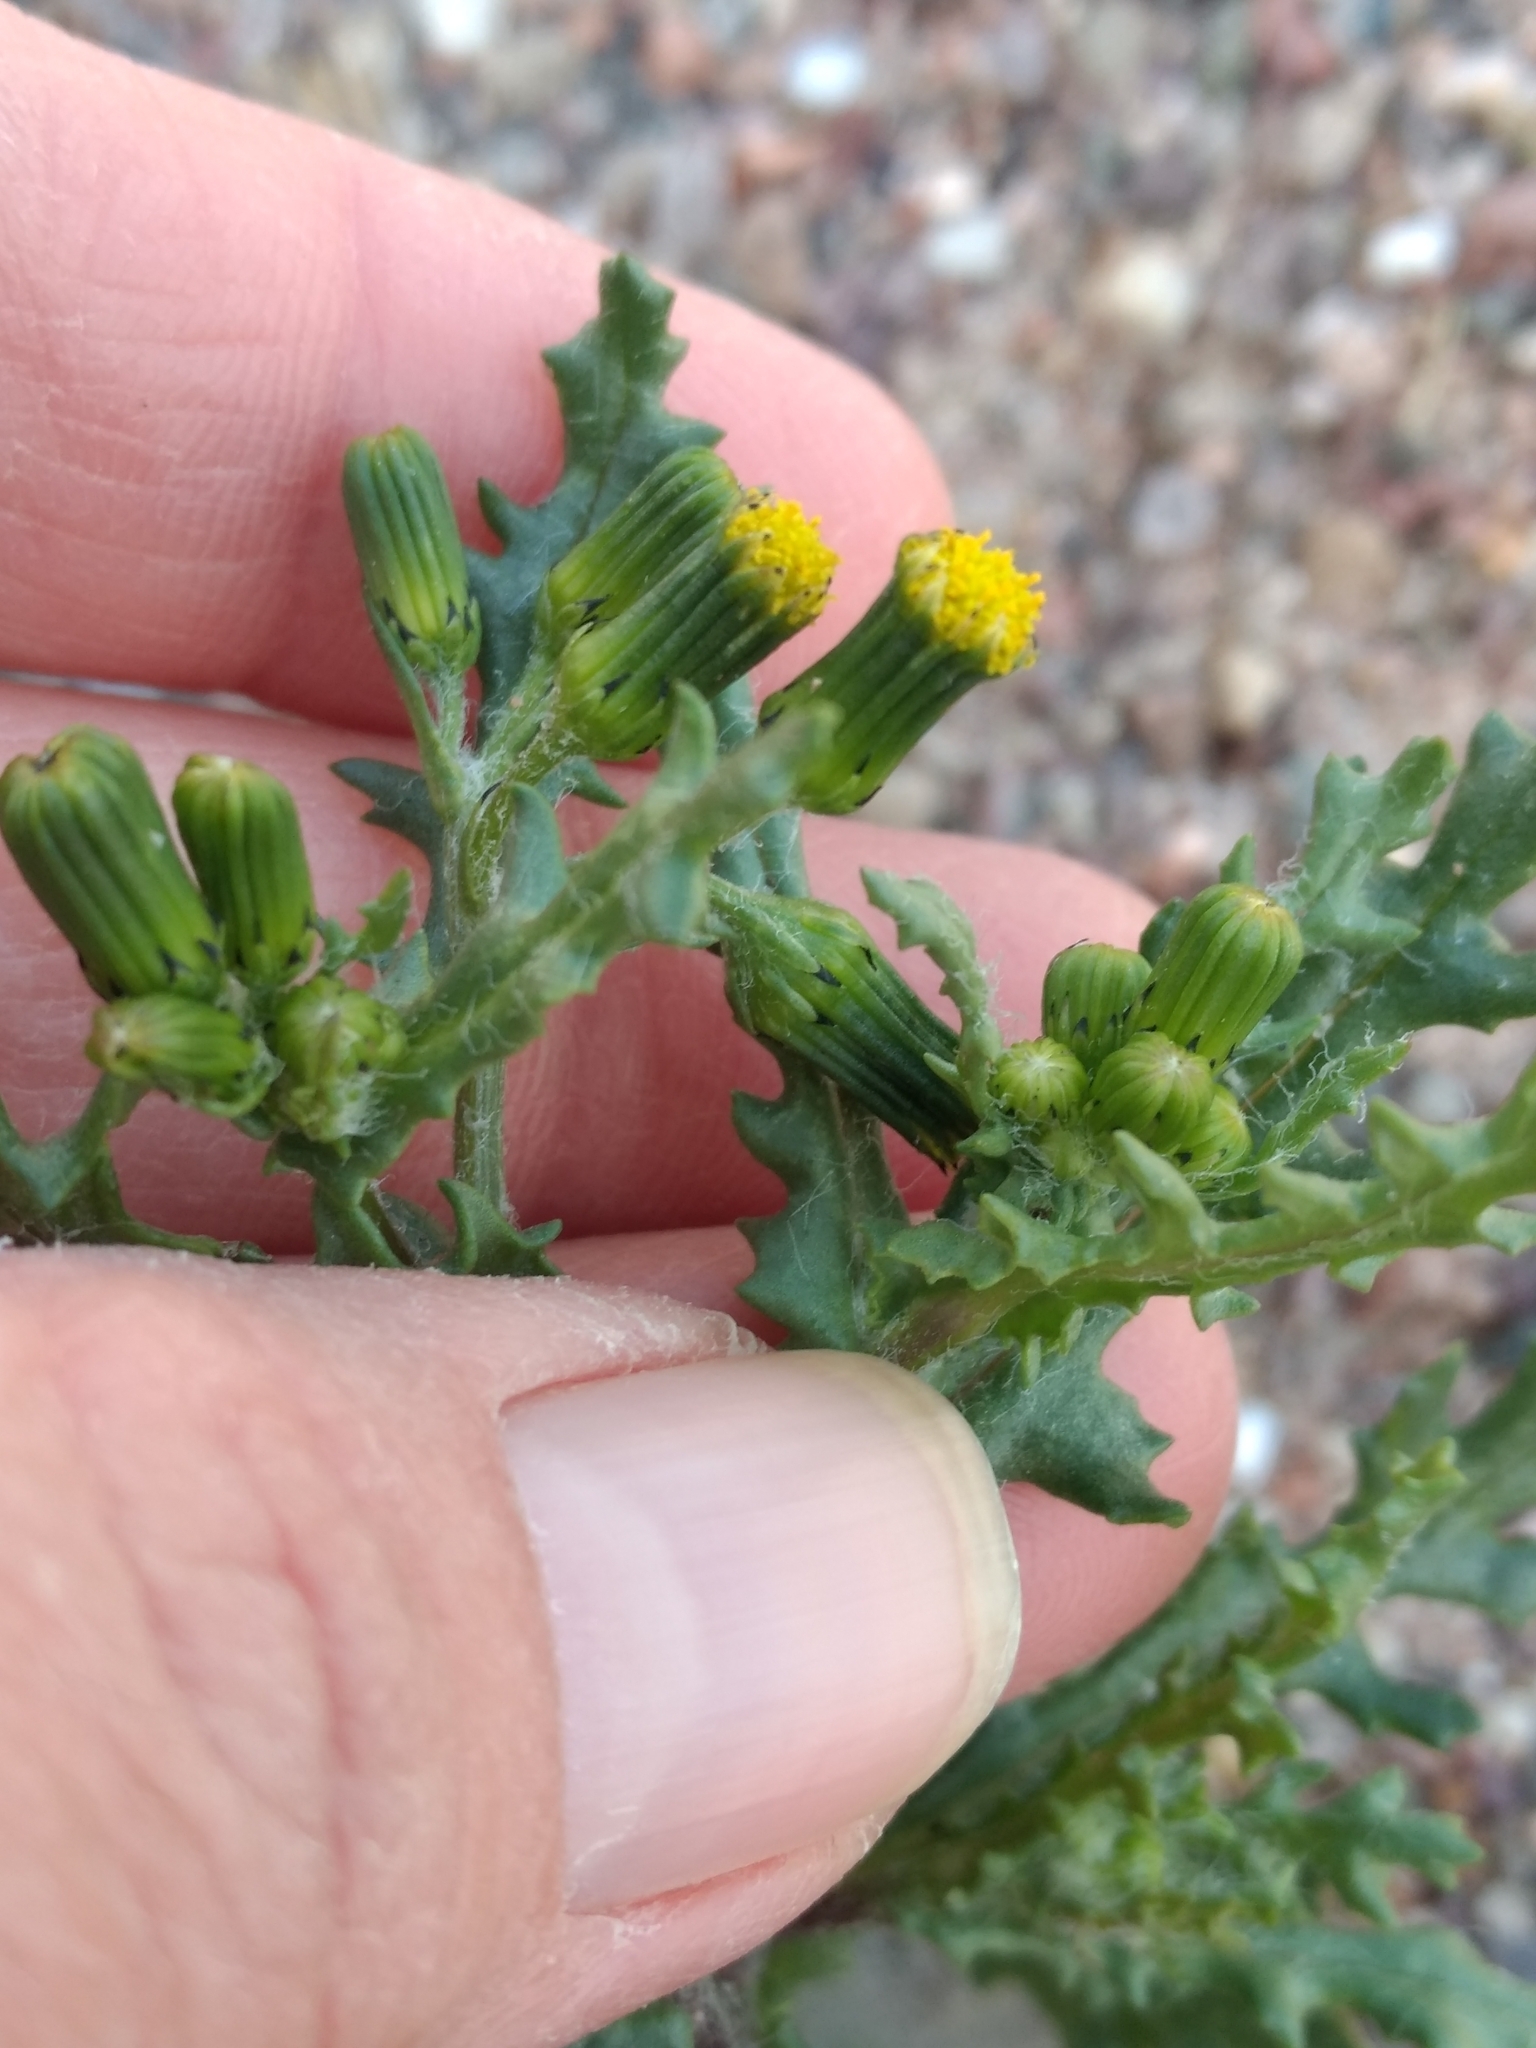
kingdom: Plantae
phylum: Tracheophyta
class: Magnoliopsida
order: Asterales
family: Asteraceae
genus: Senecio
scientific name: Senecio vulgaris
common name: Old-man-in-the-spring
